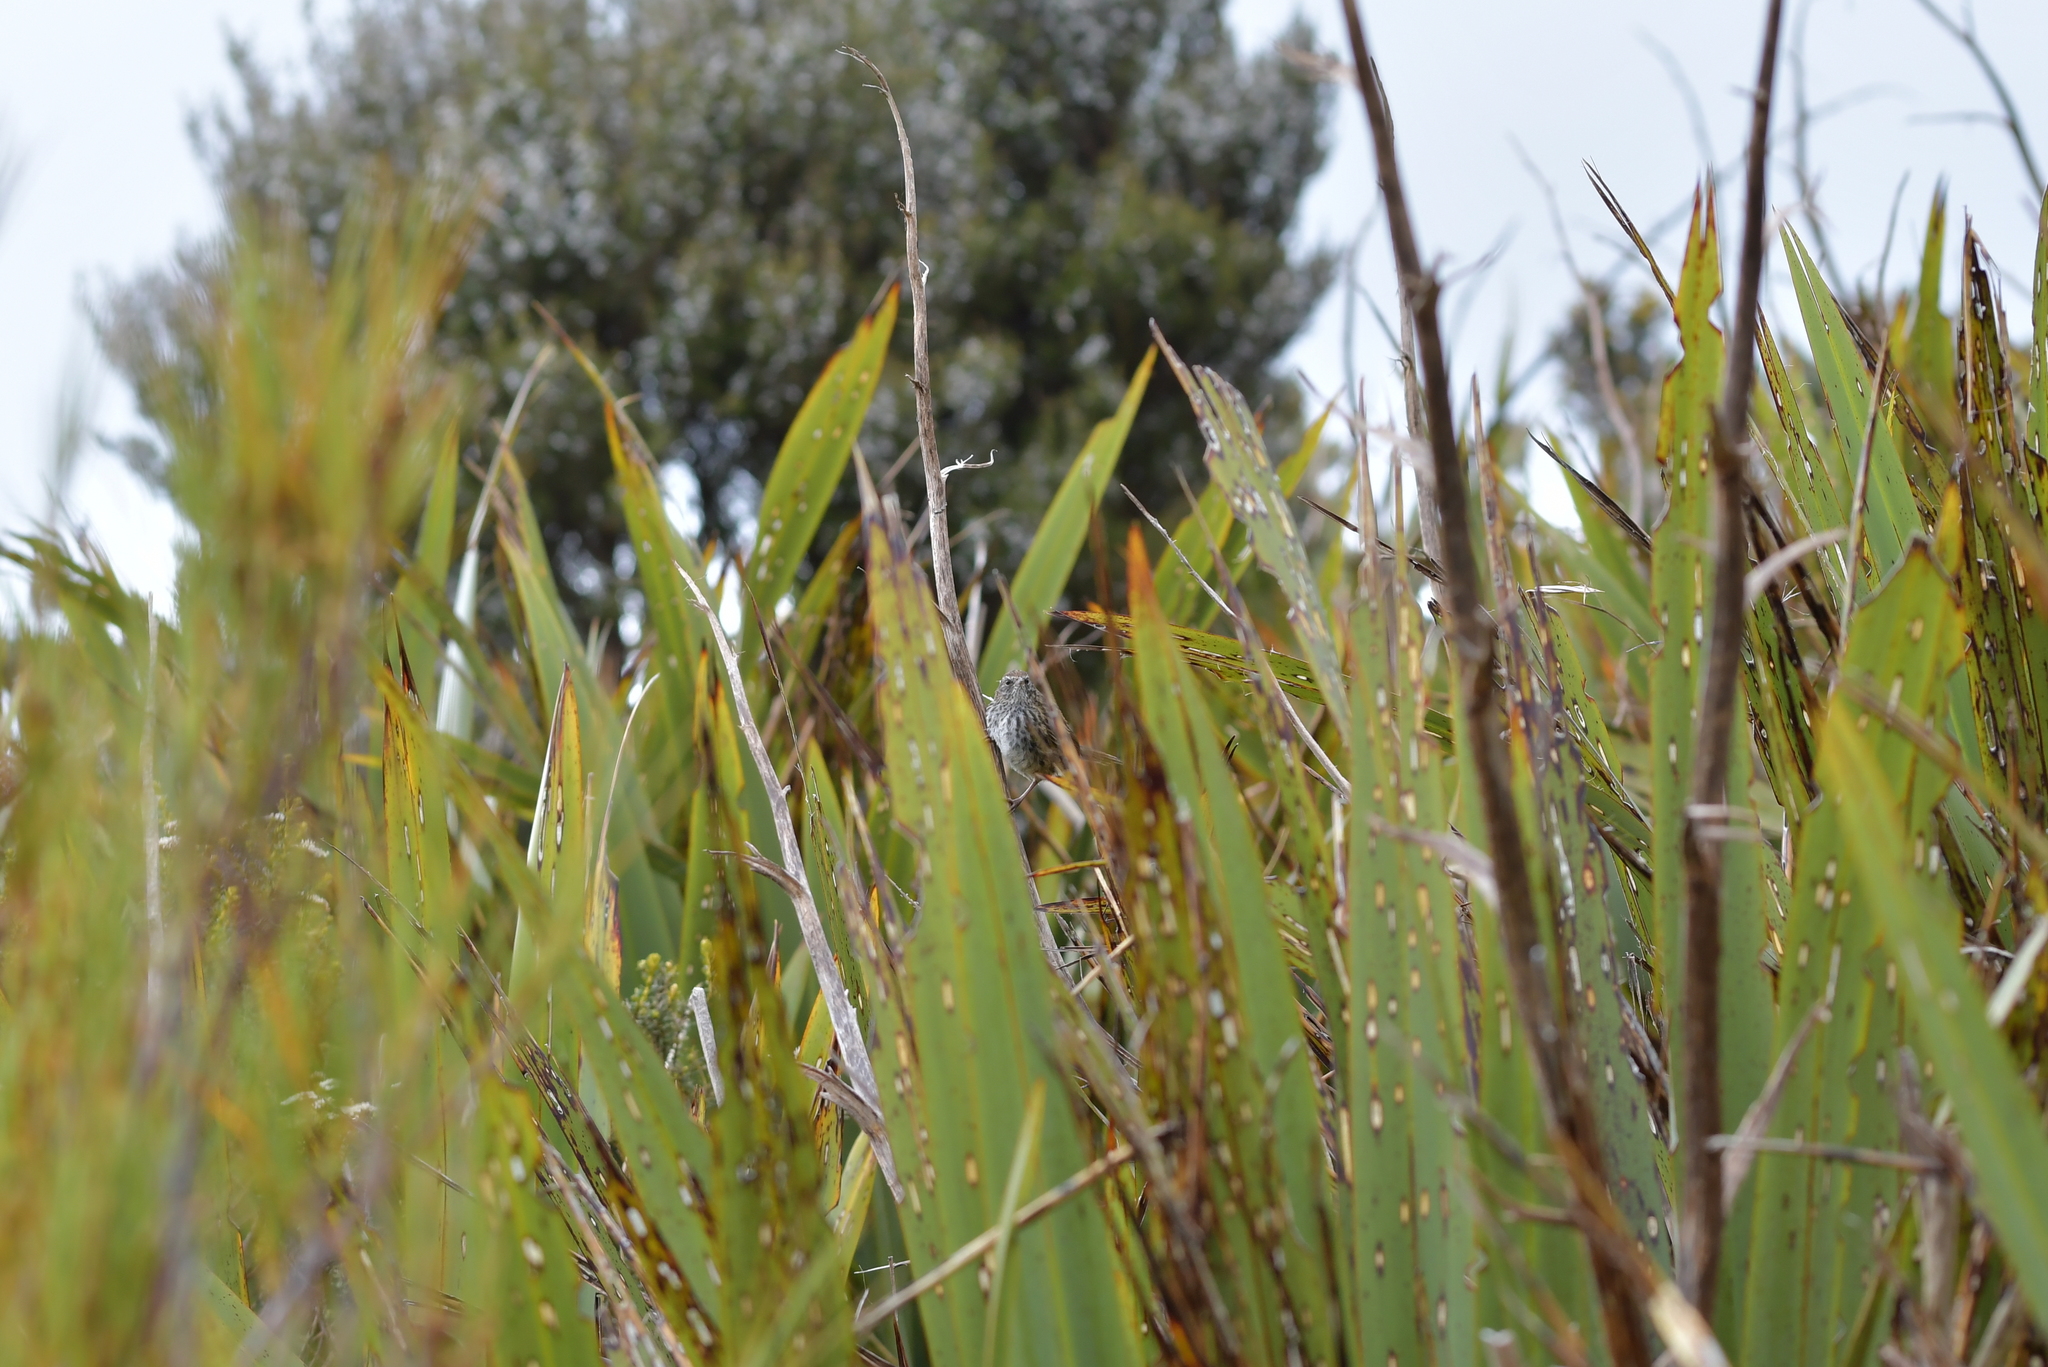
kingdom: Animalia
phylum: Chordata
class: Aves
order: Passeriformes
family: Locustellidae
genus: Poodytes
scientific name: Poodytes punctatus
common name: New zealand fernbird
